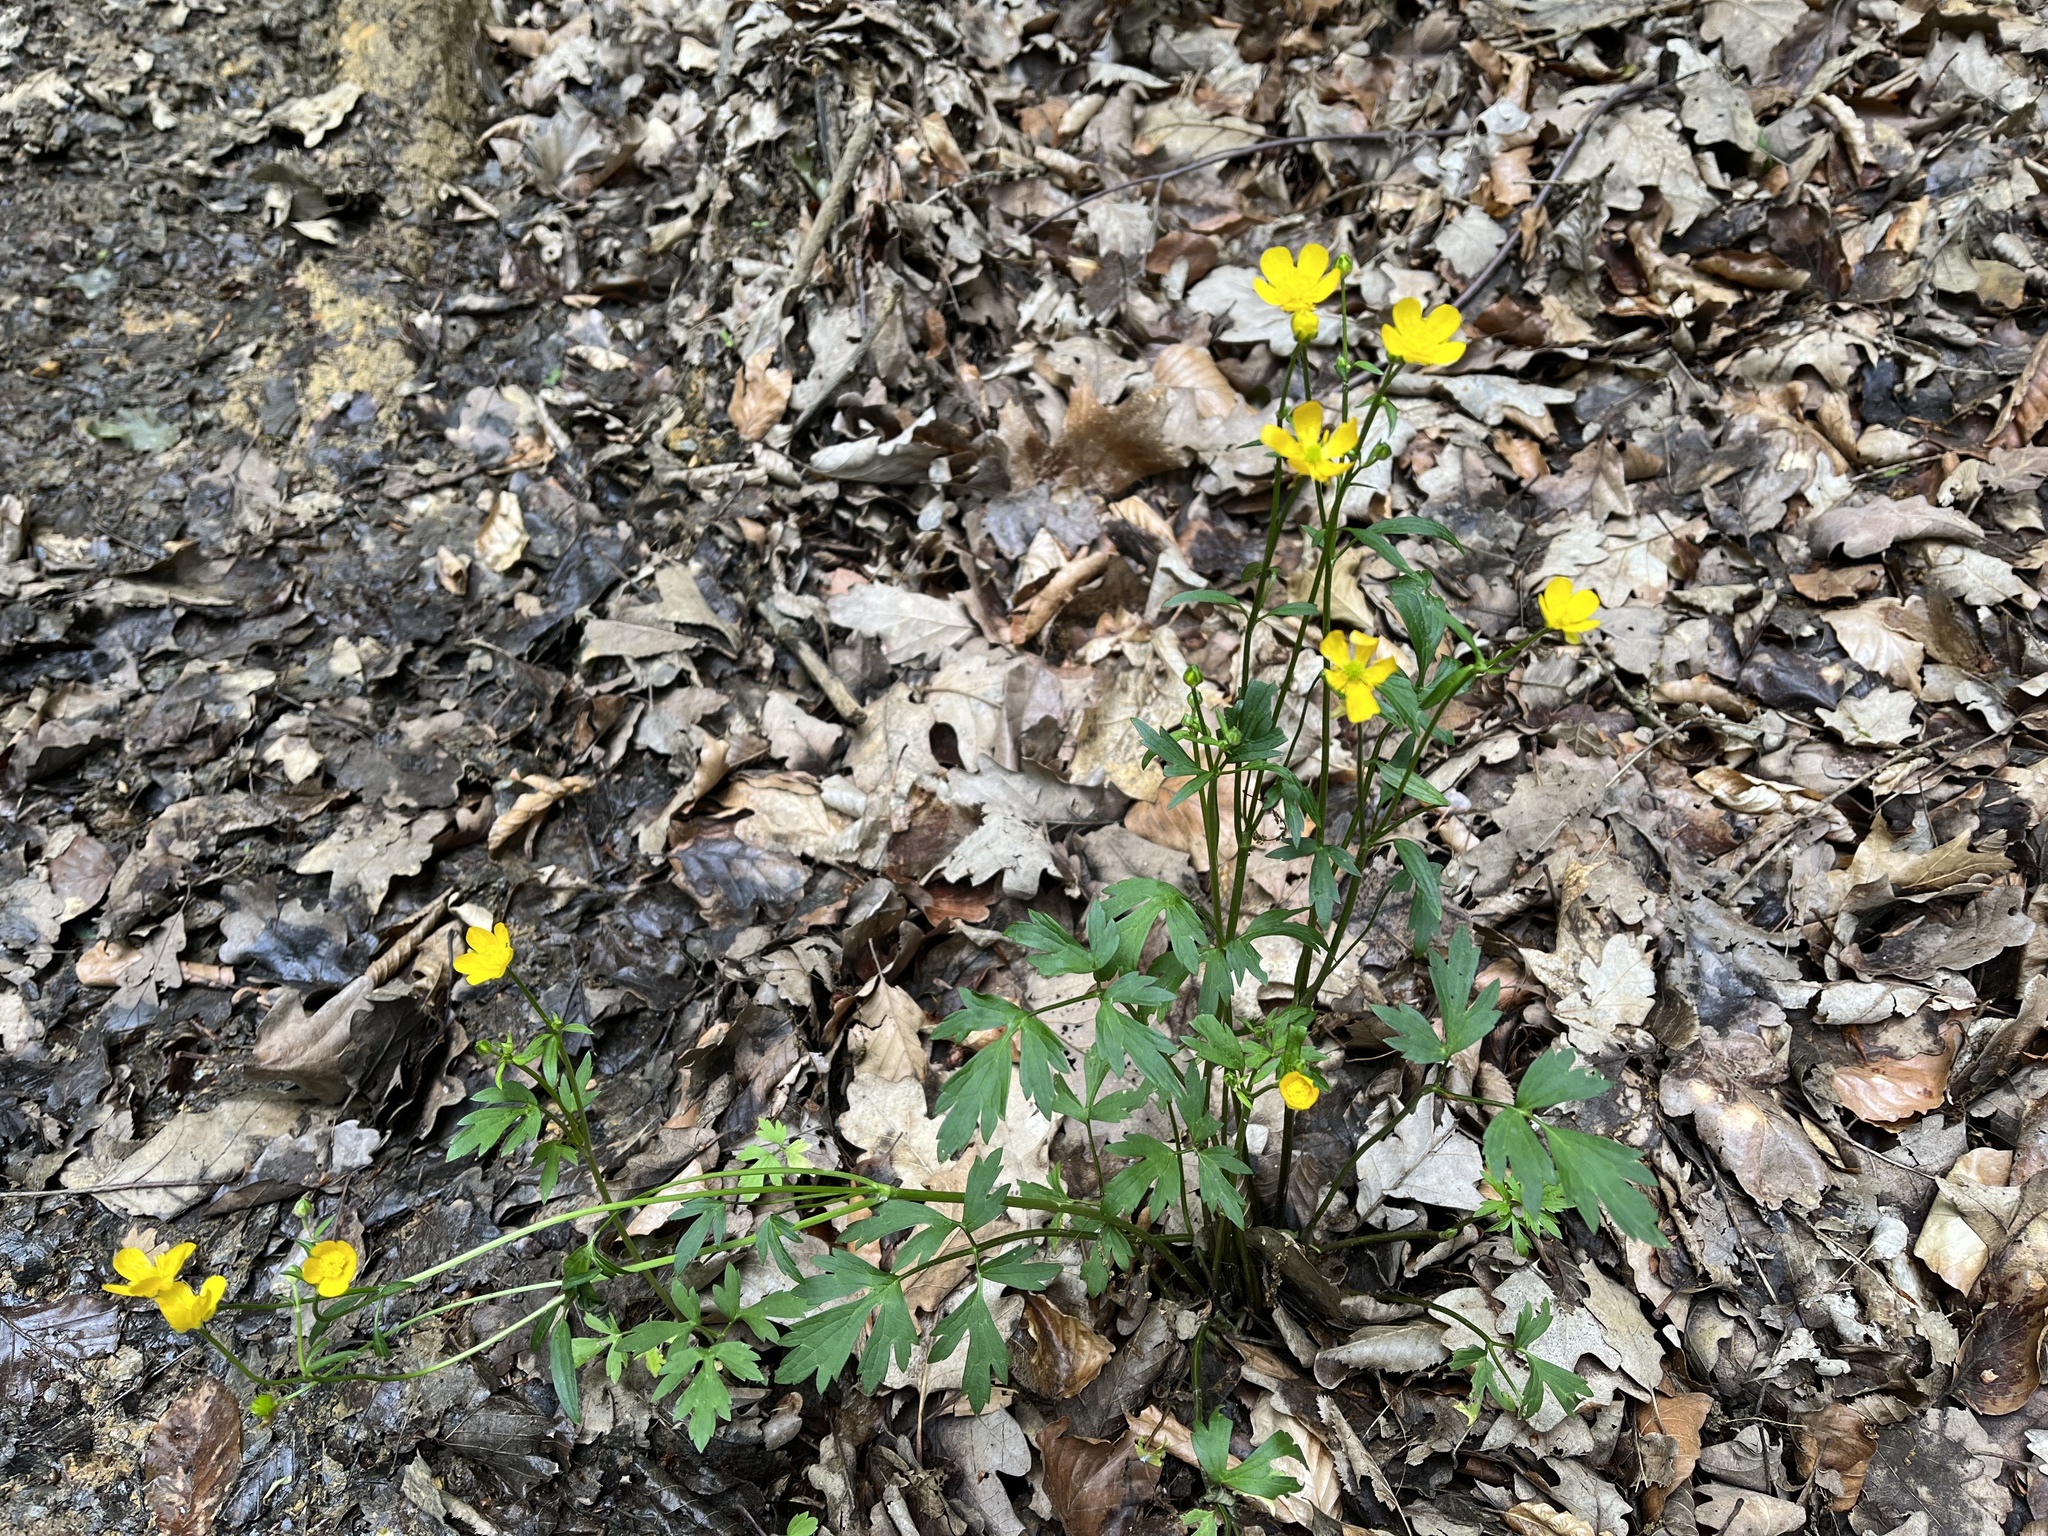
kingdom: Plantae
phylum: Tracheophyta
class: Magnoliopsida
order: Ranunculales
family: Ranunculaceae
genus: Ranunculus
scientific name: Ranunculus repens
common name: Creeping buttercup
